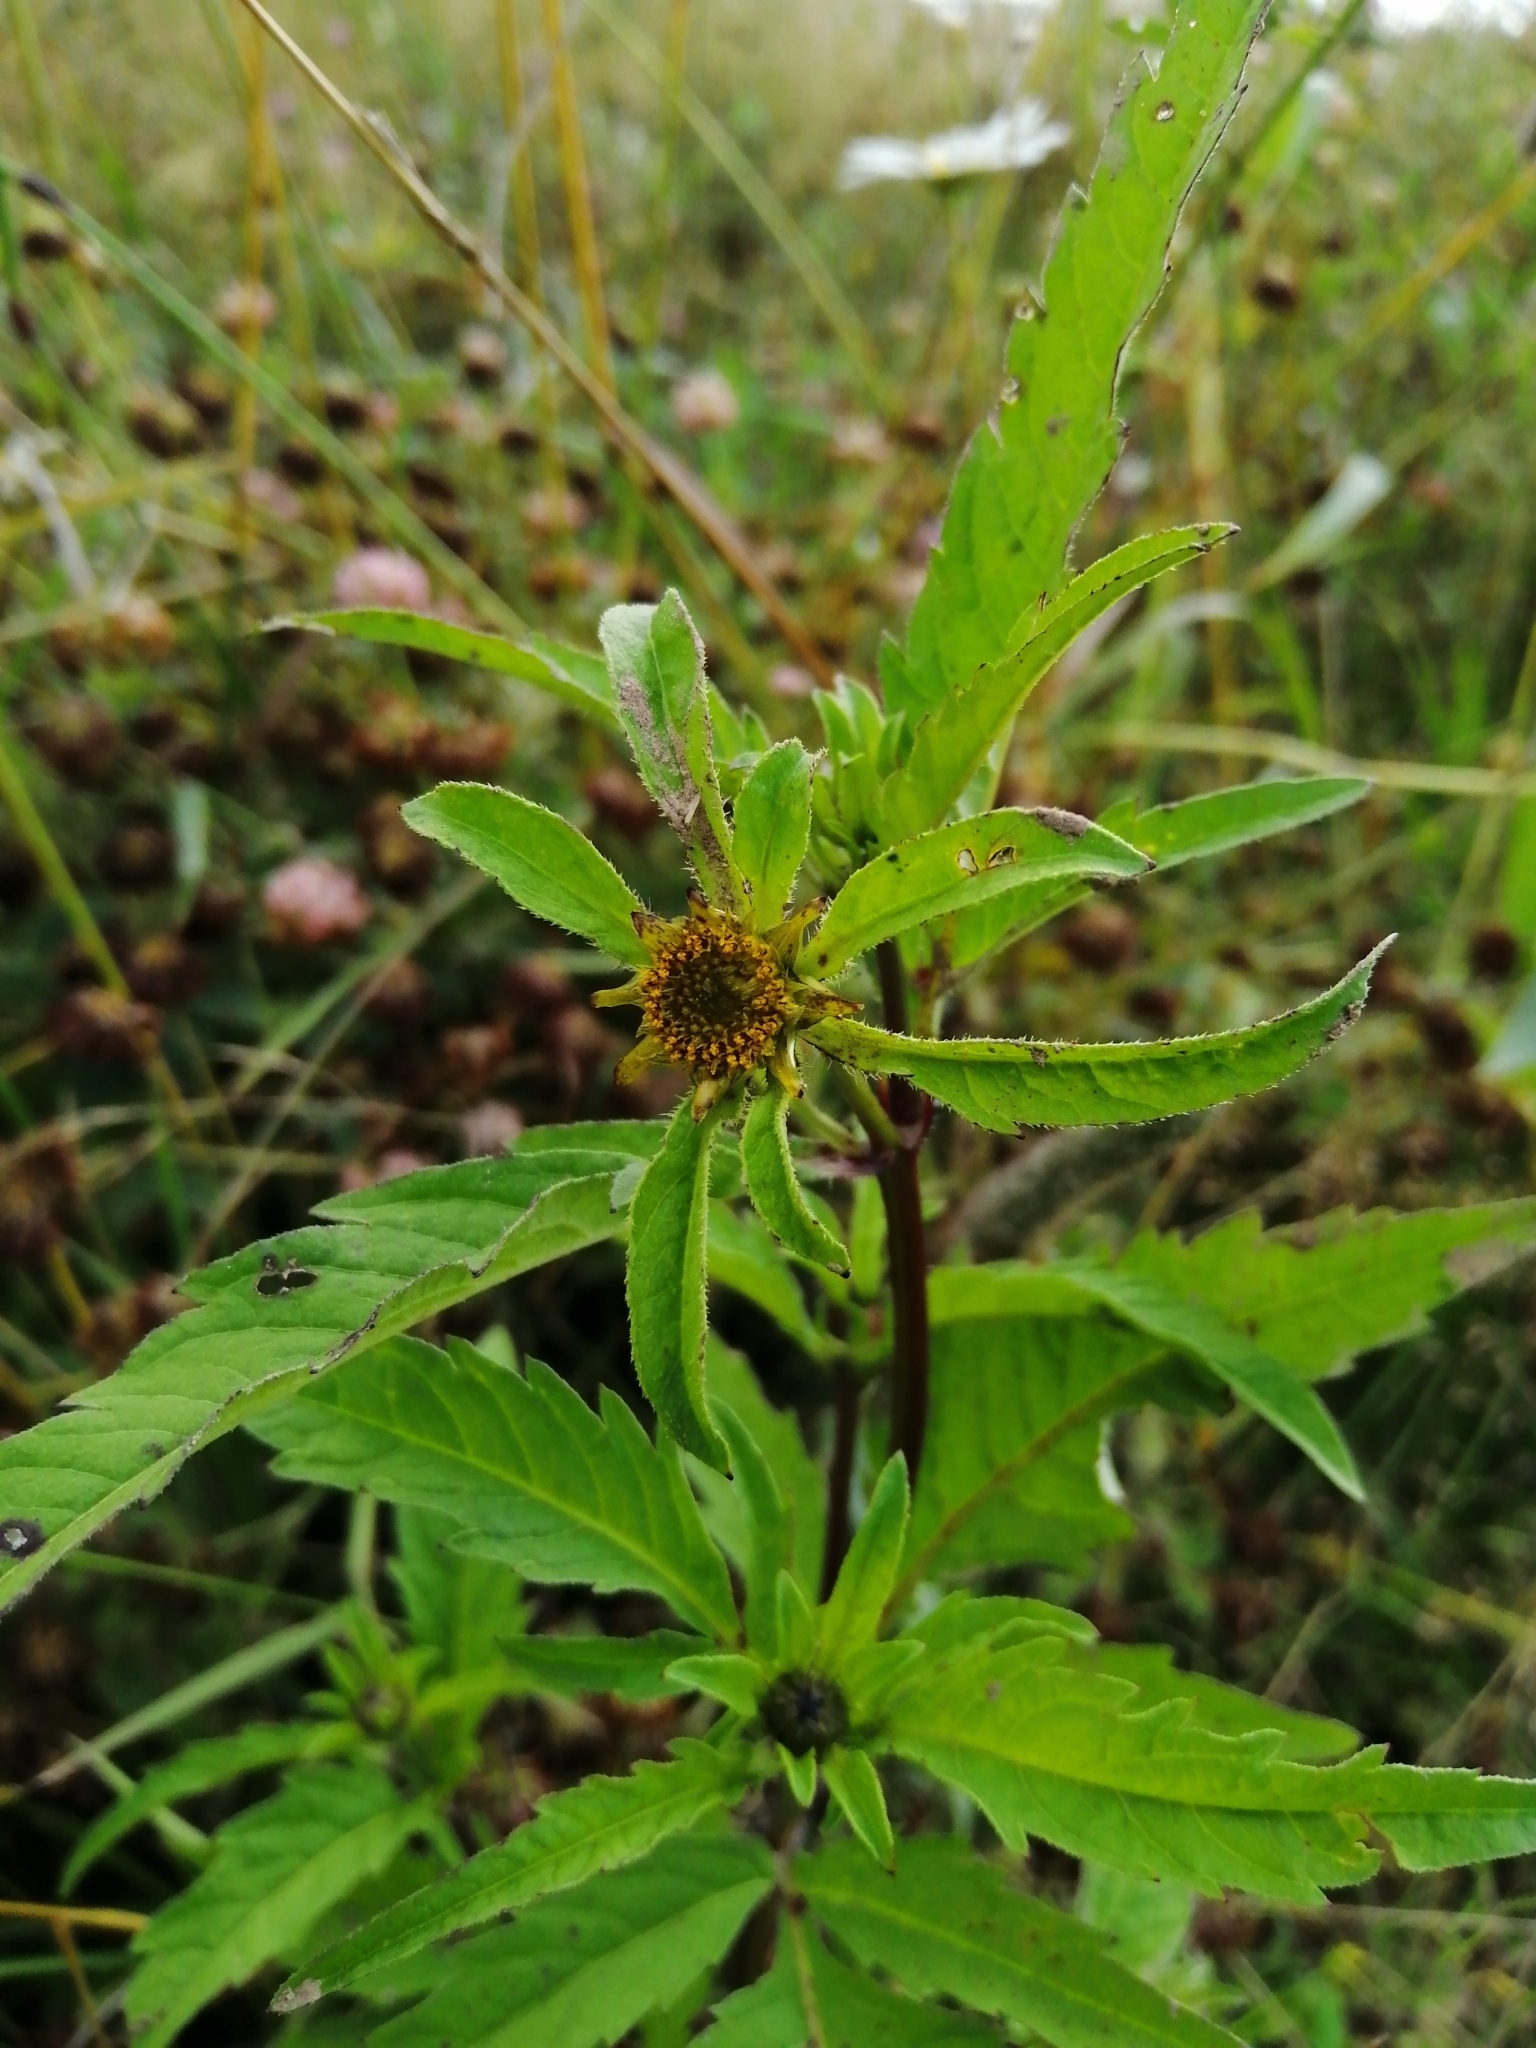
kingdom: Plantae
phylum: Tracheophyta
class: Magnoliopsida
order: Asterales
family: Asteraceae
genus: Bidens
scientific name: Bidens tripartita
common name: Trifid bur-marigold
